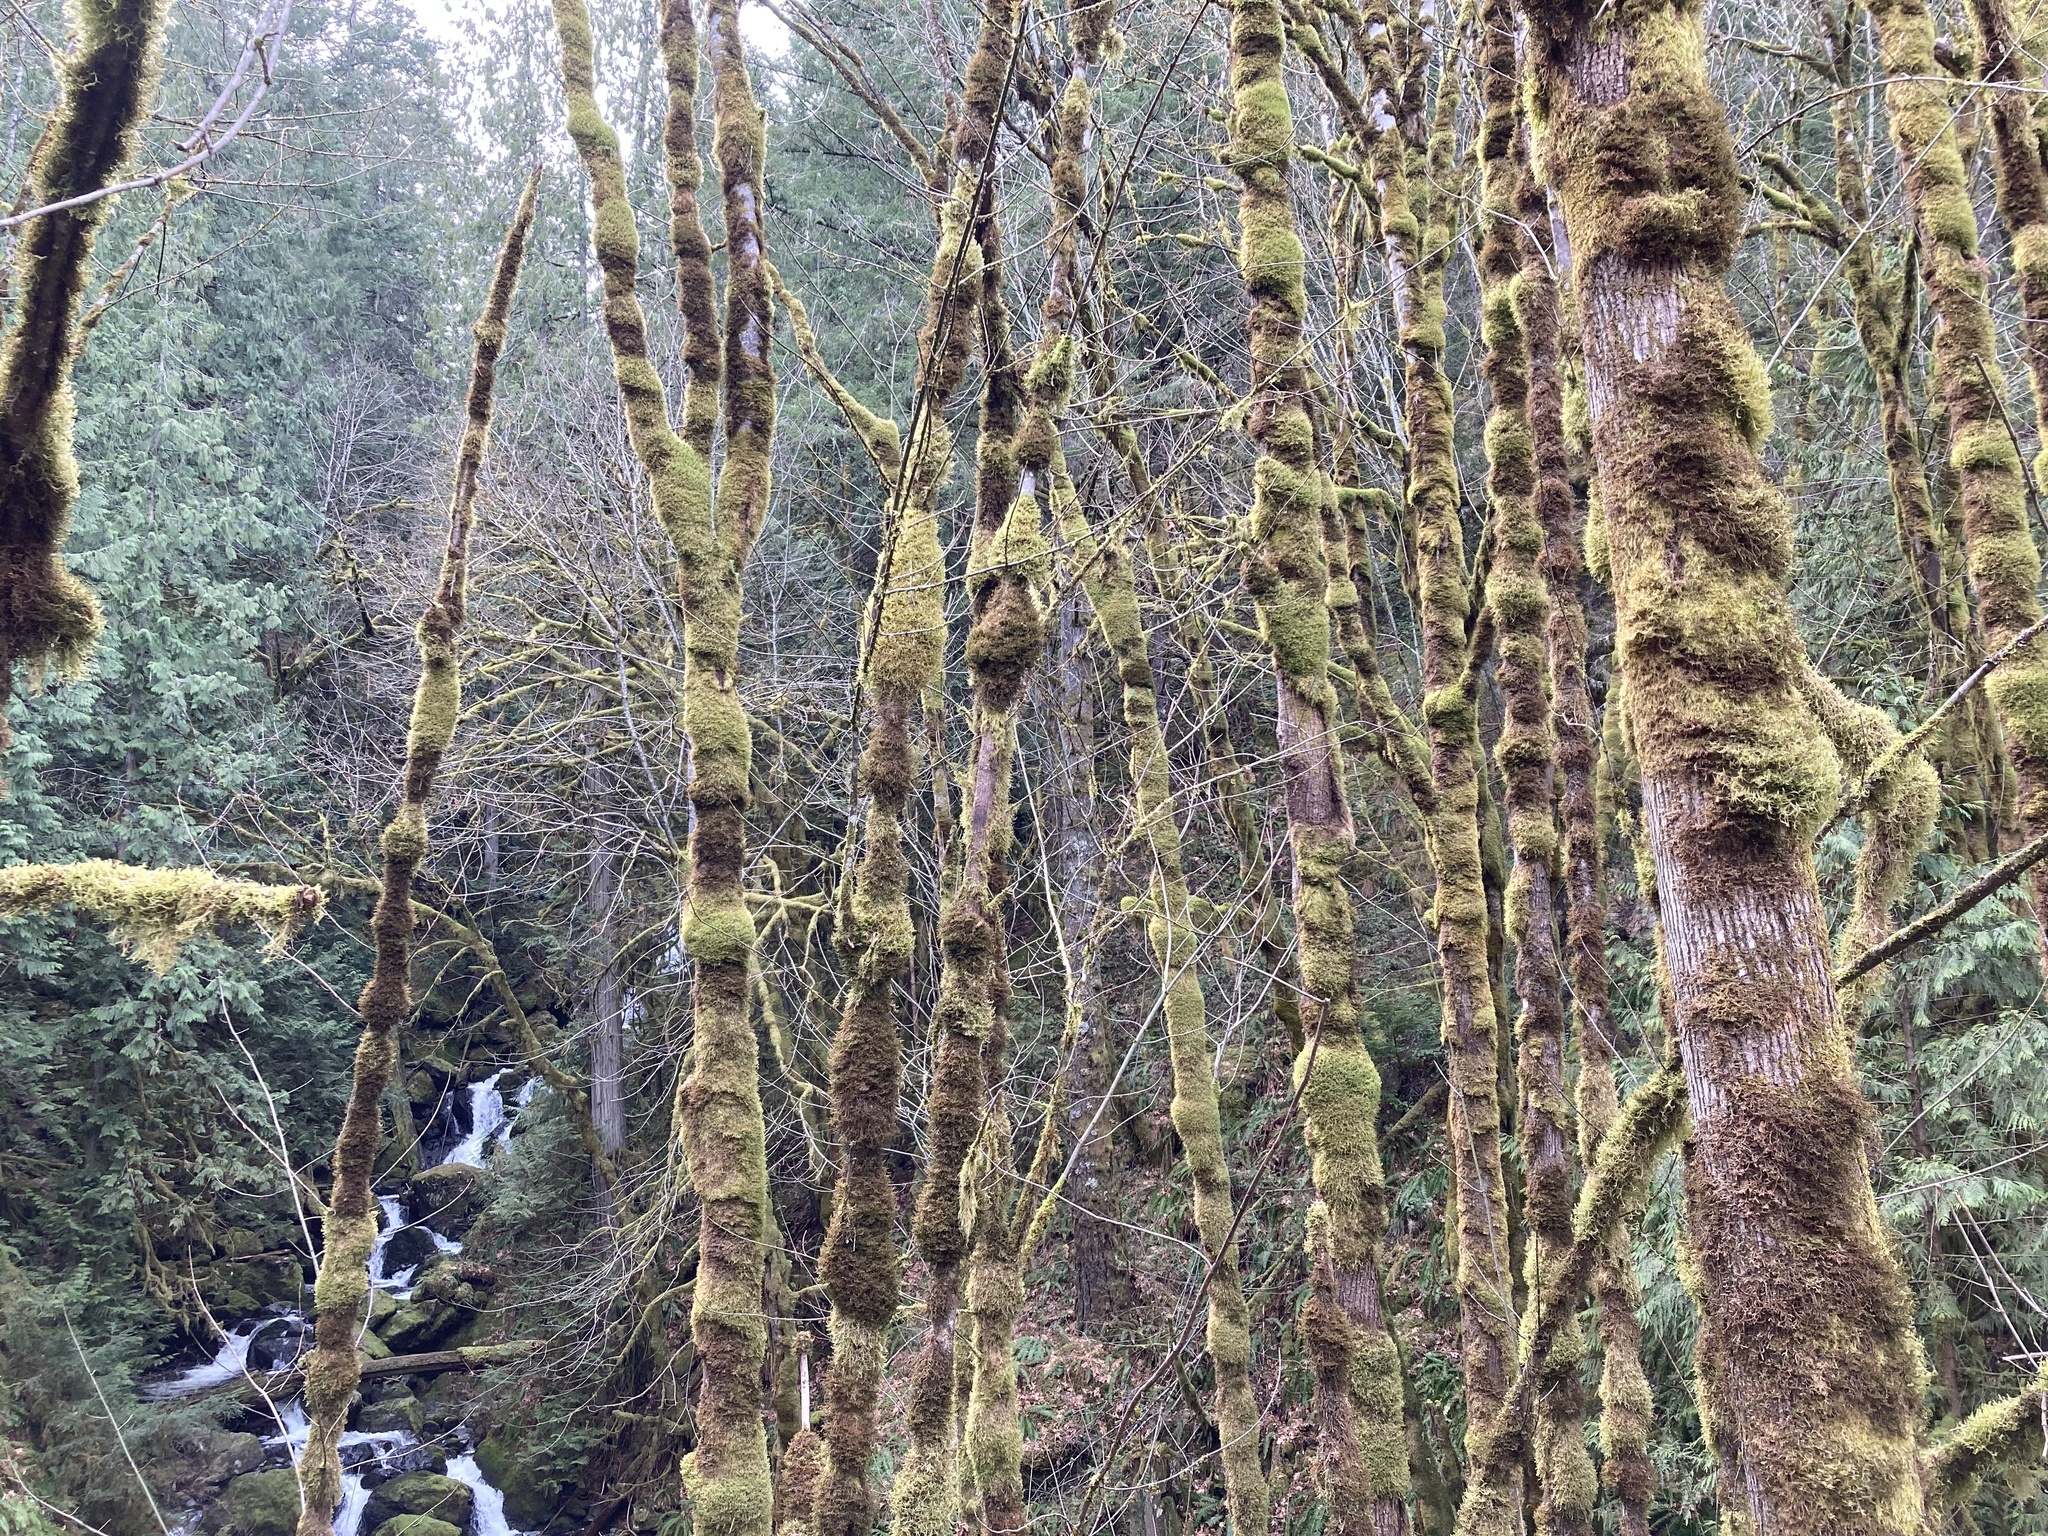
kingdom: Plantae
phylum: Tracheophyta
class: Magnoliopsida
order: Sapindales
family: Sapindaceae
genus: Acer
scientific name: Acer macrophyllum
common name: Oregon maple
